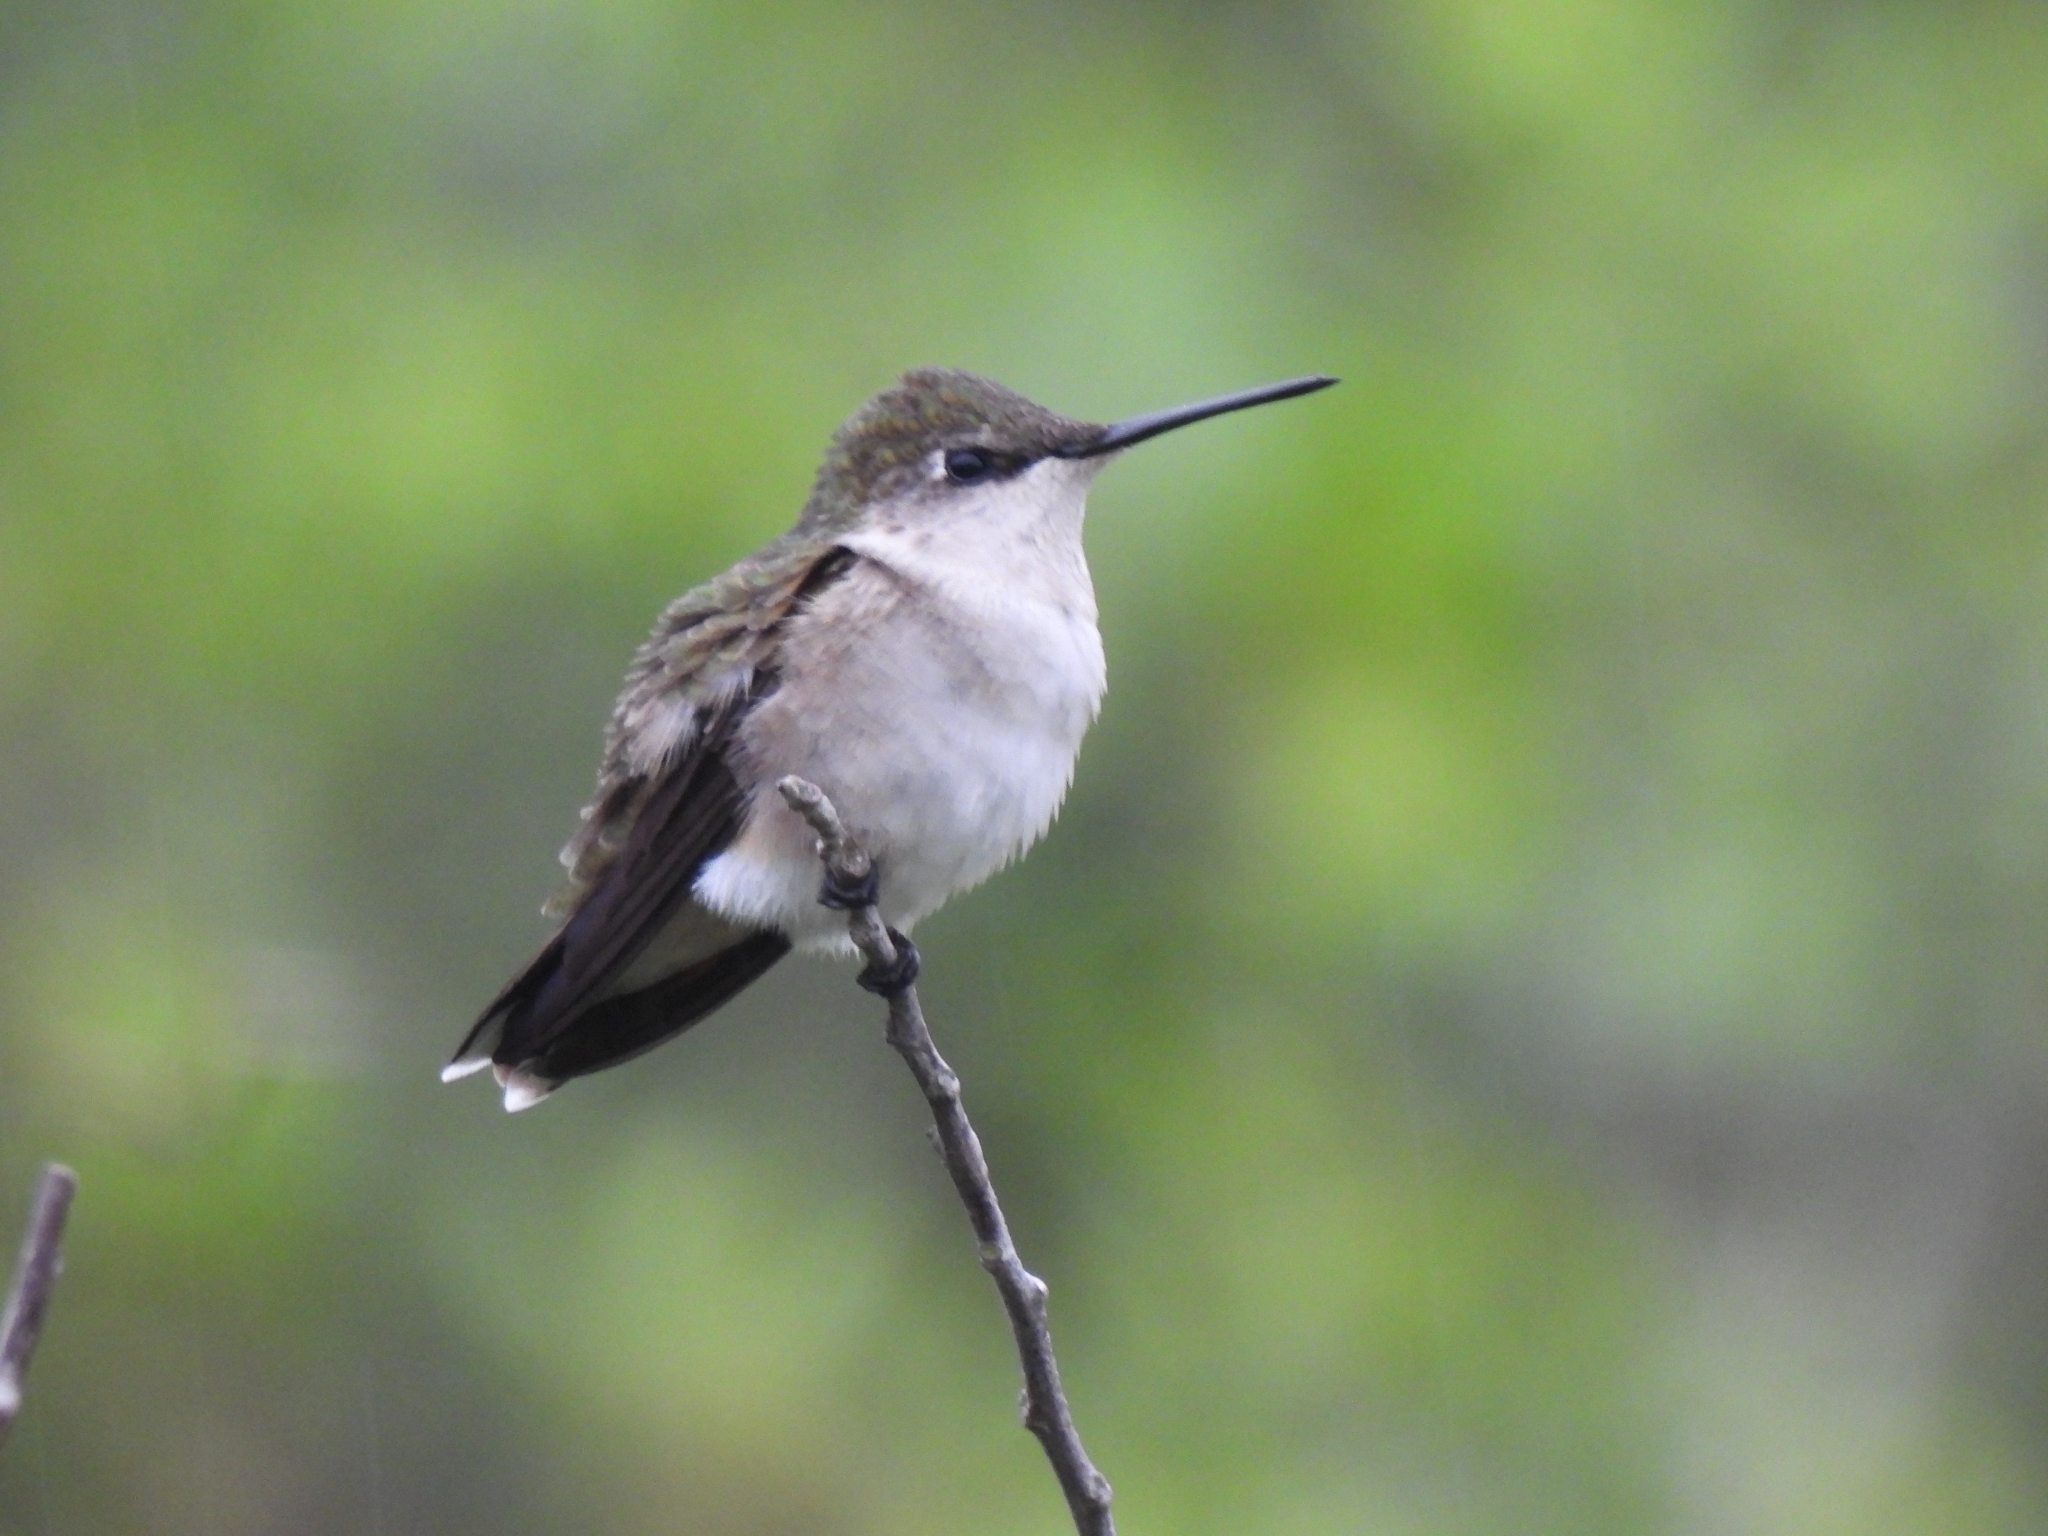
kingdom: Animalia
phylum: Chordata
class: Aves
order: Apodiformes
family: Trochilidae
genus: Archilochus
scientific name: Archilochus alexandri
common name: Black-chinned hummingbird
